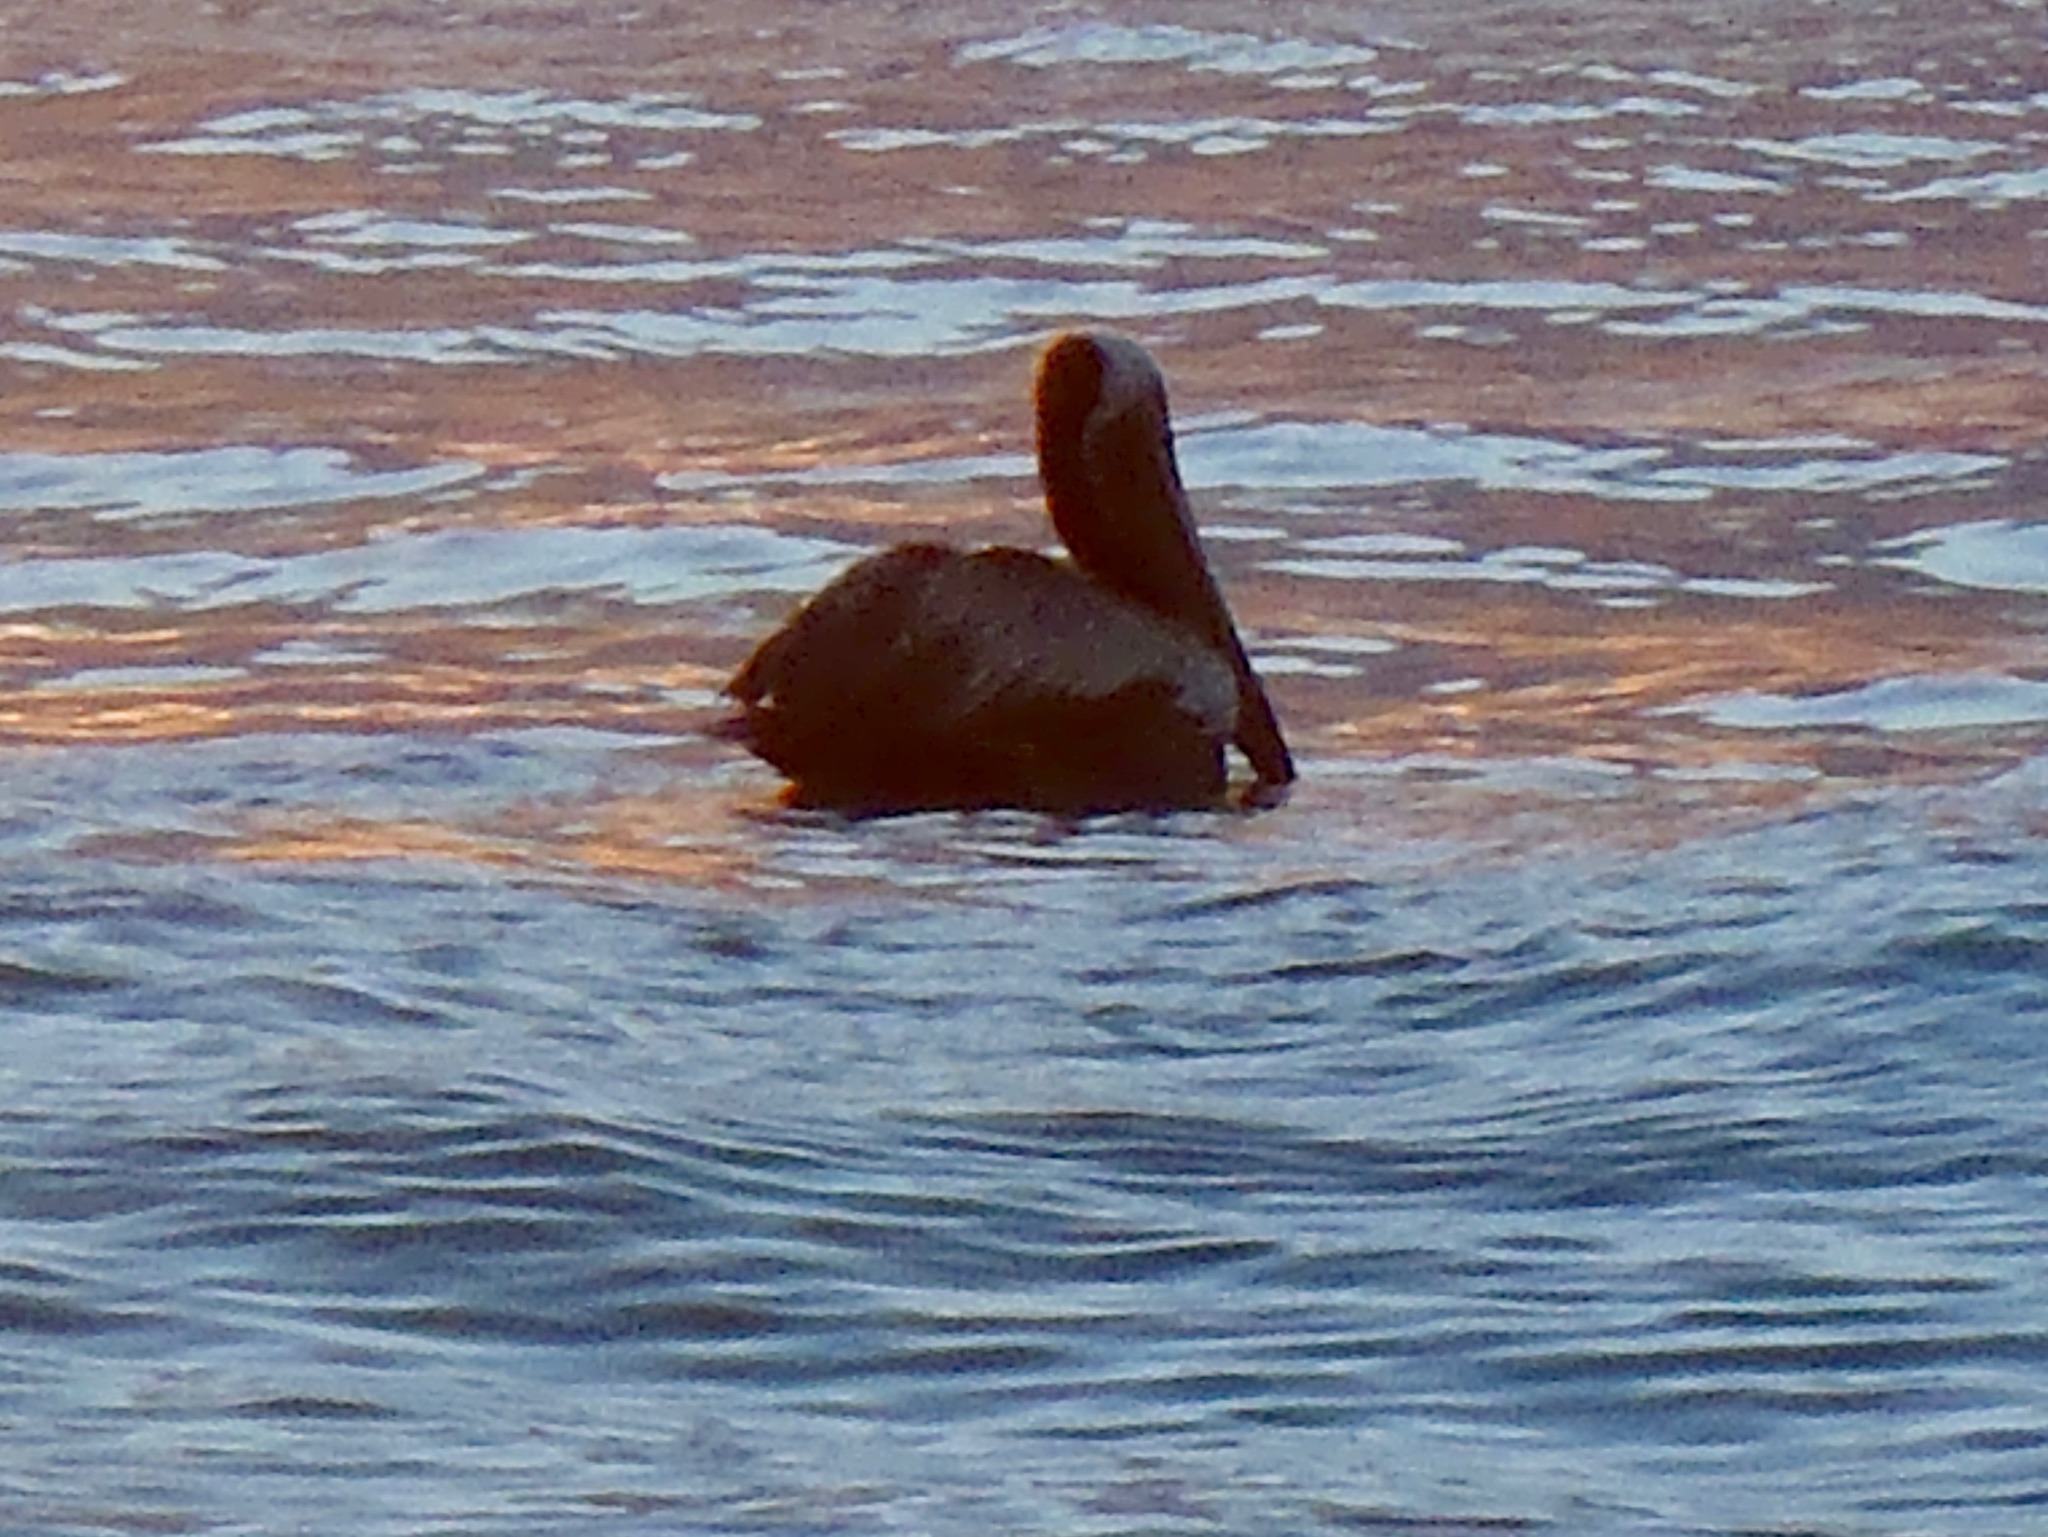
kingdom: Animalia
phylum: Chordata
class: Aves
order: Pelecaniformes
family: Pelecanidae
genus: Pelecanus
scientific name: Pelecanus occidentalis
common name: Brown pelican
